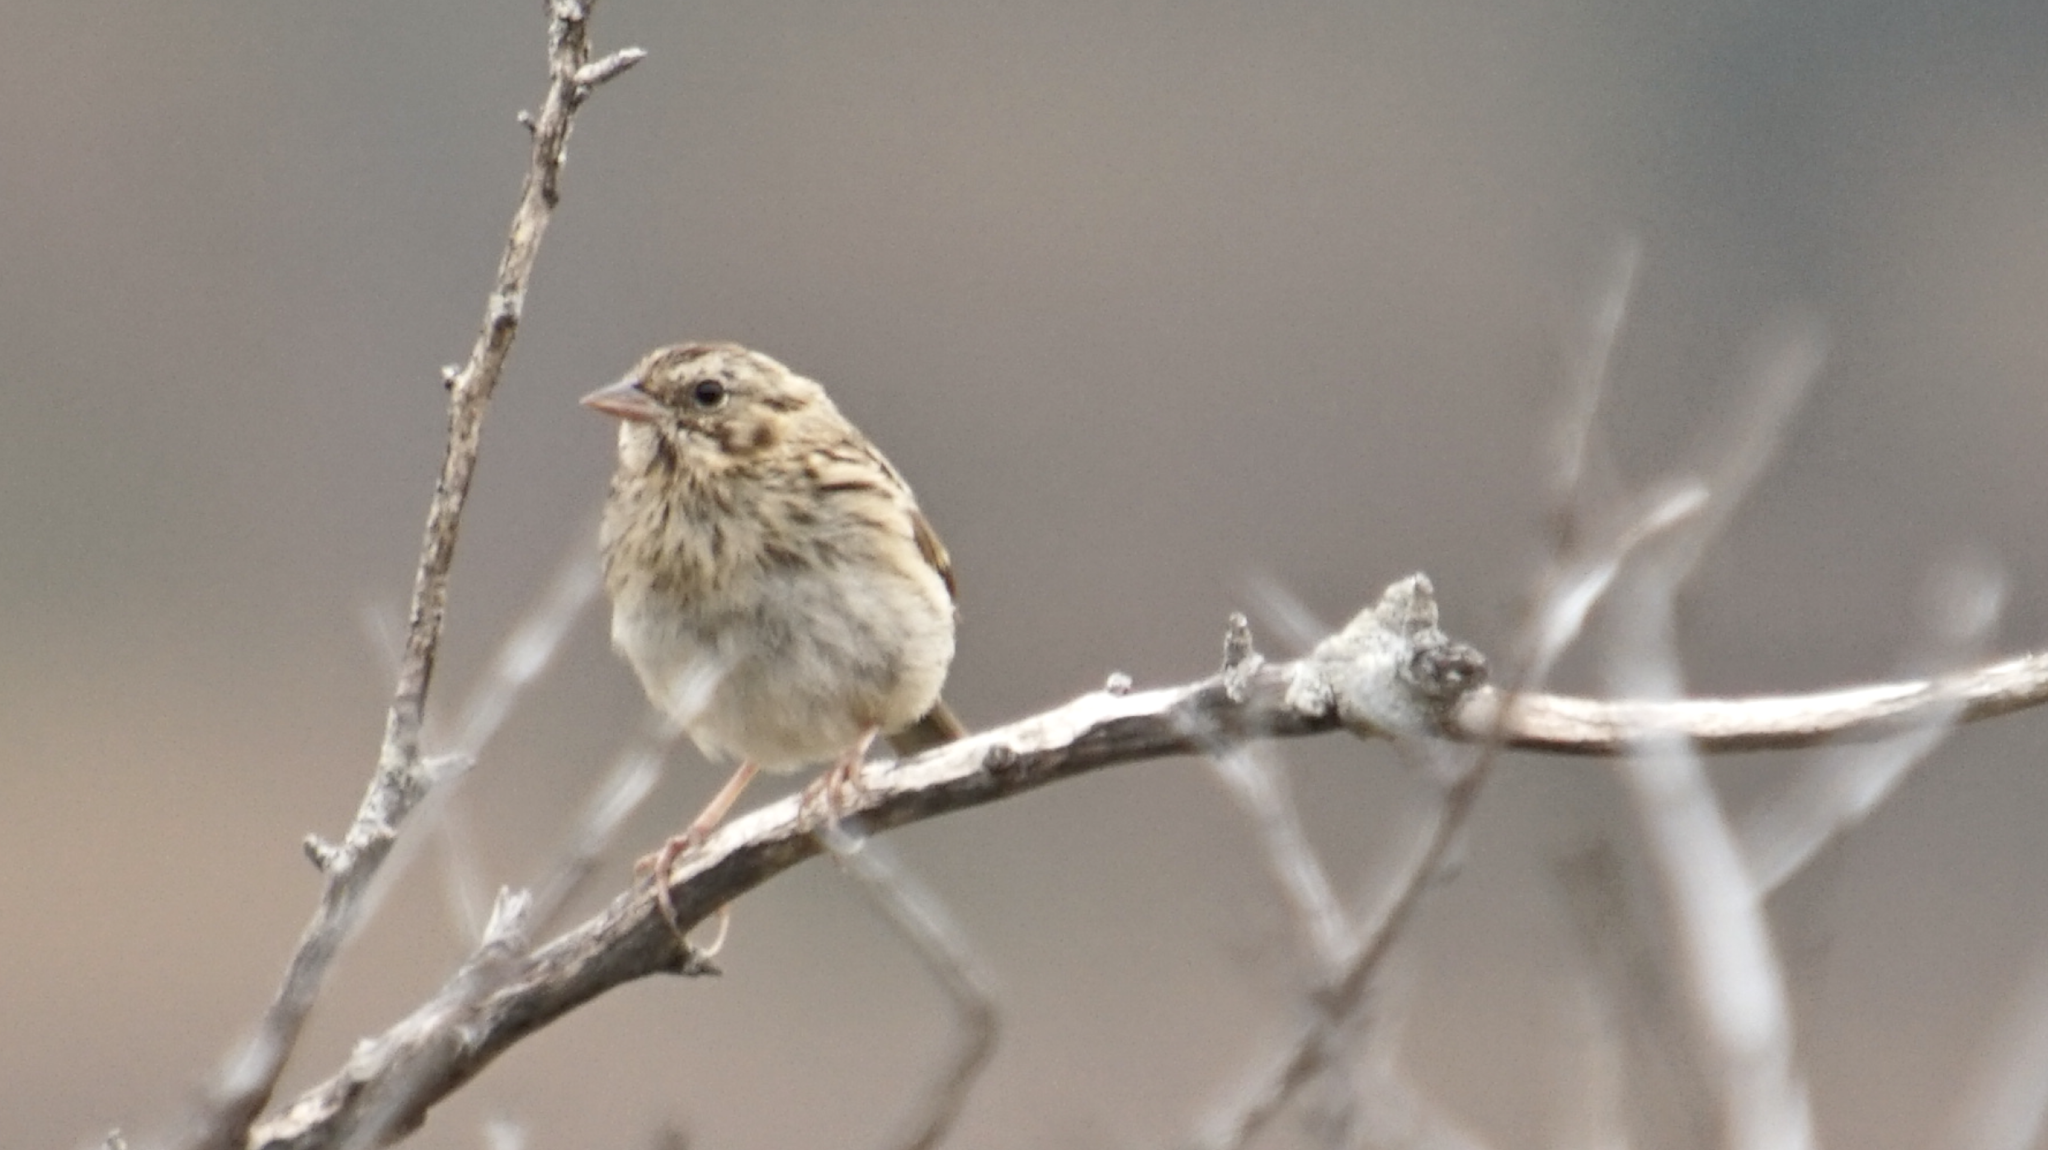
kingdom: Animalia
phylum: Chordata
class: Aves
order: Passeriformes
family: Passerellidae
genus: Passerculus
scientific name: Passerculus sandwichensis
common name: Savannah sparrow
